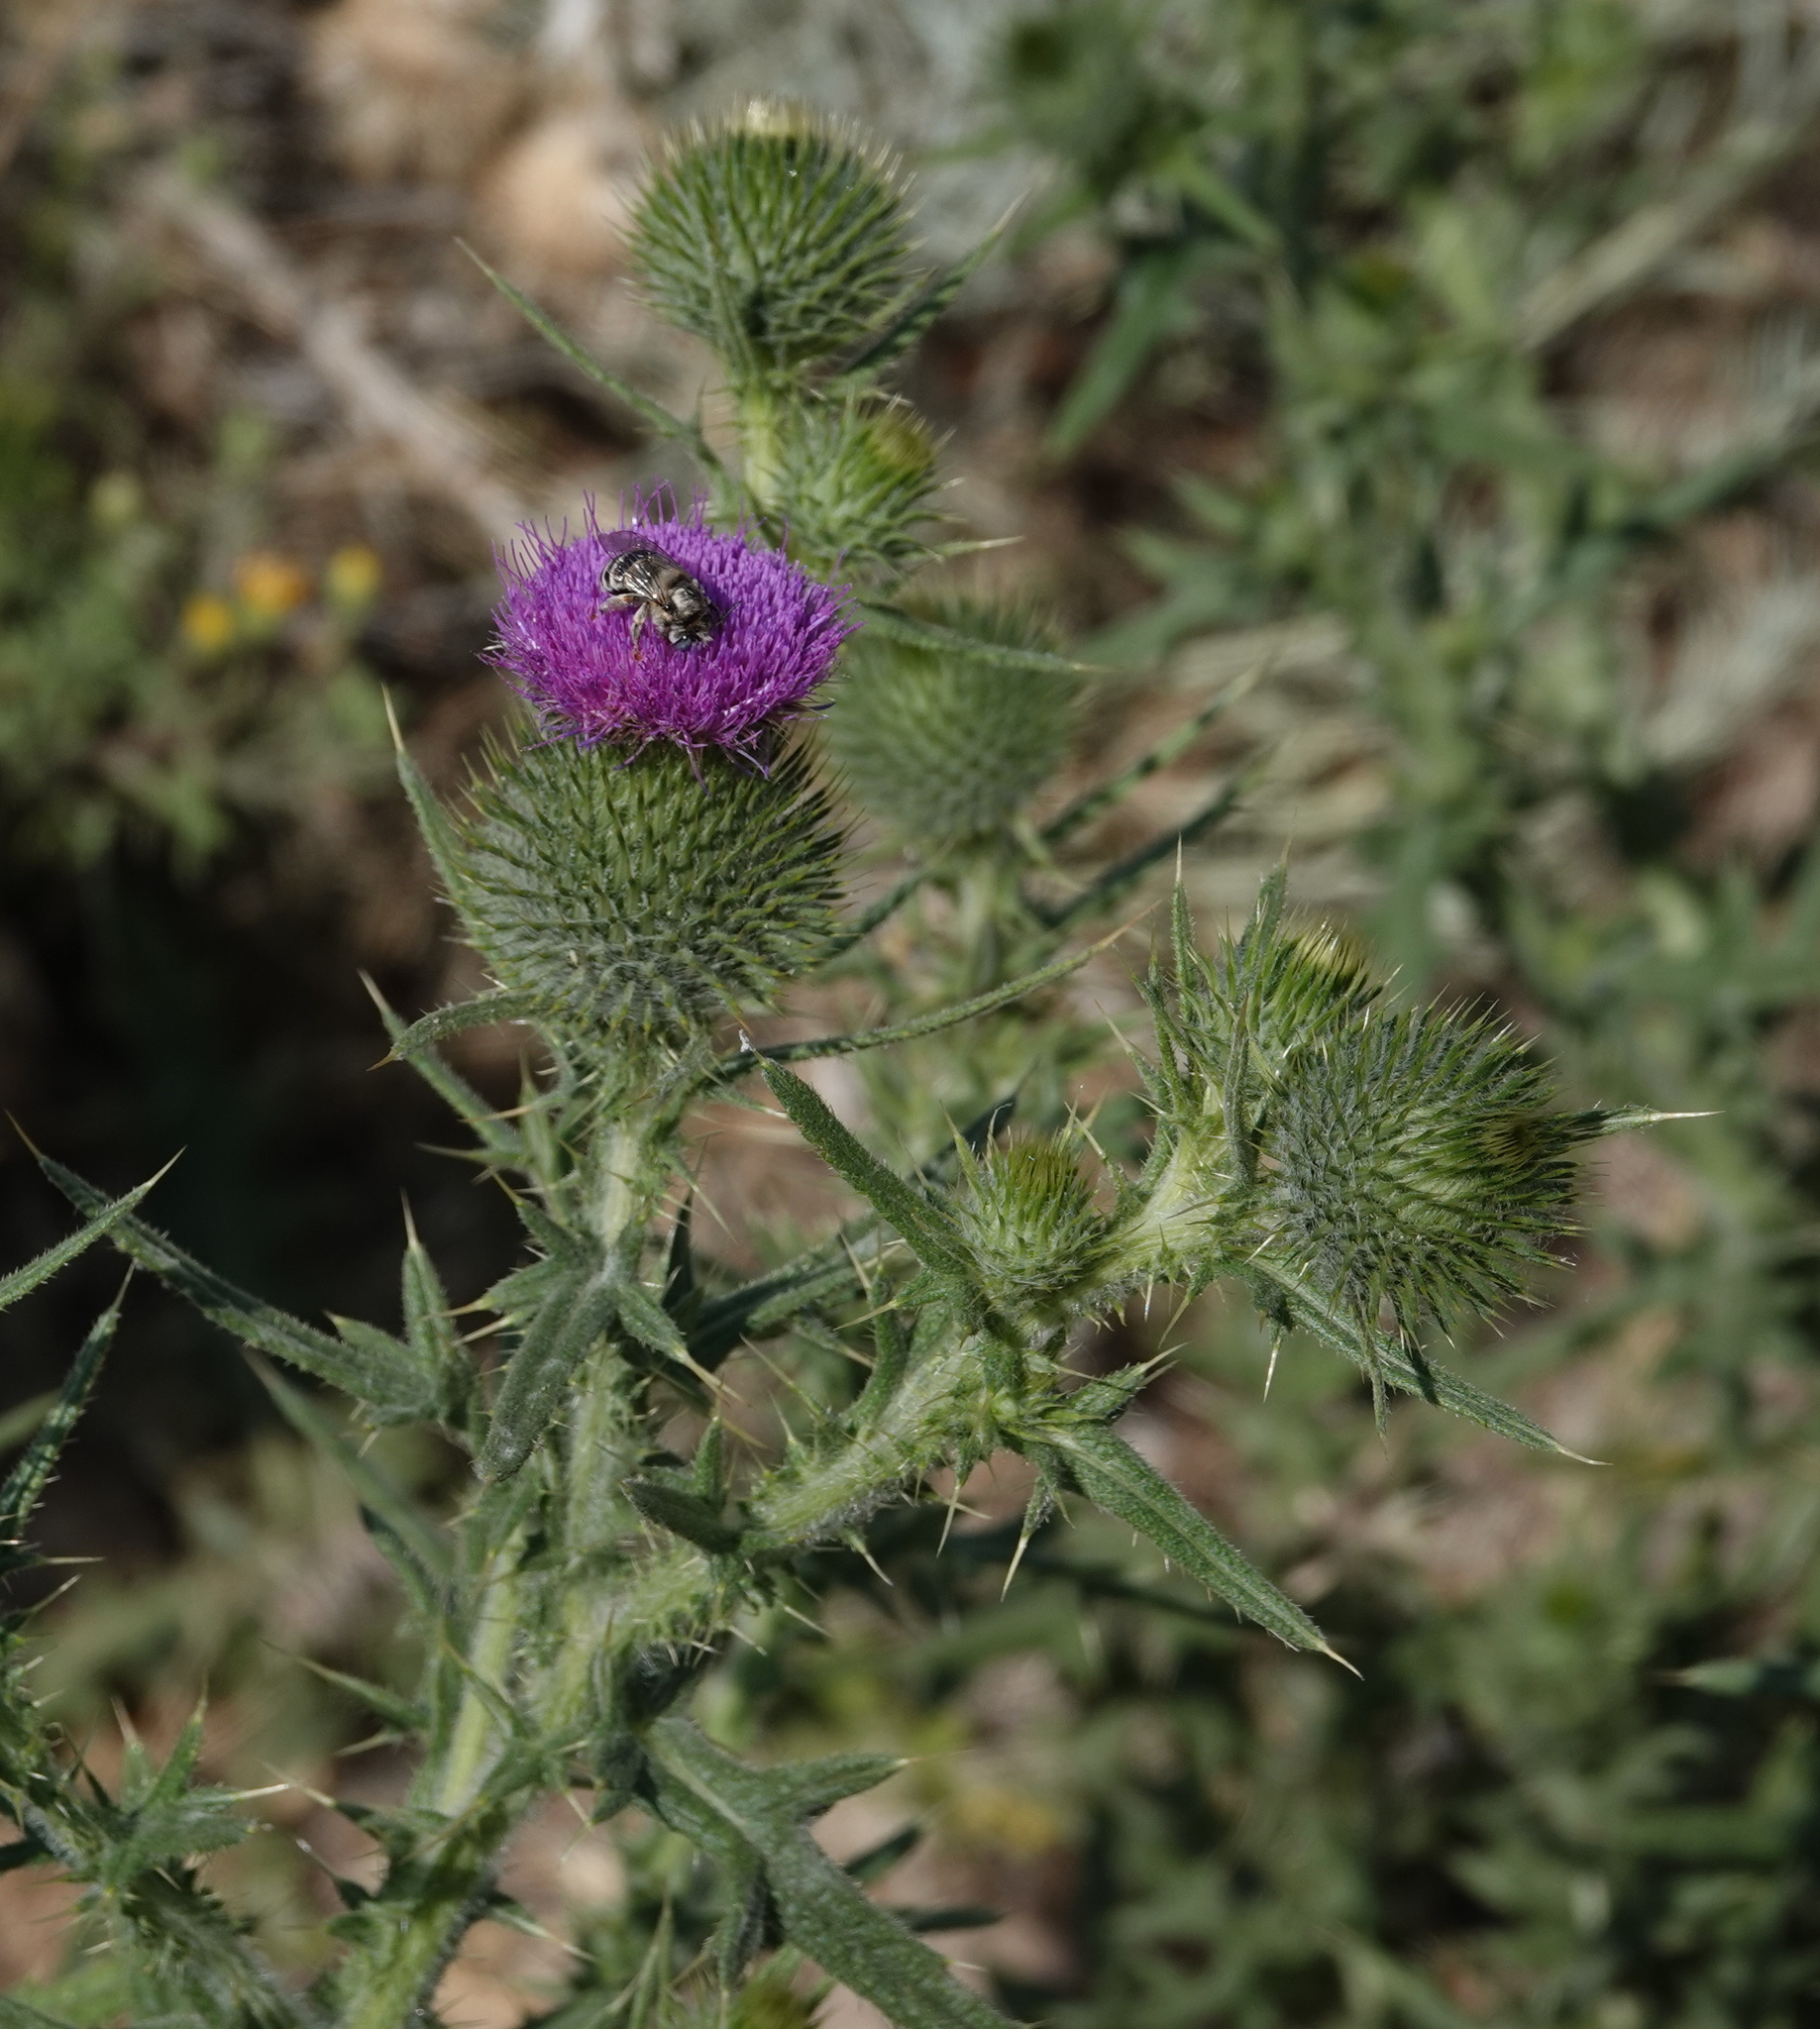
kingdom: Plantae
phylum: Tracheophyta
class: Magnoliopsida
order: Asterales
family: Asteraceae
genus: Cirsium
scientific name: Cirsium vulgare
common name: Bull thistle
